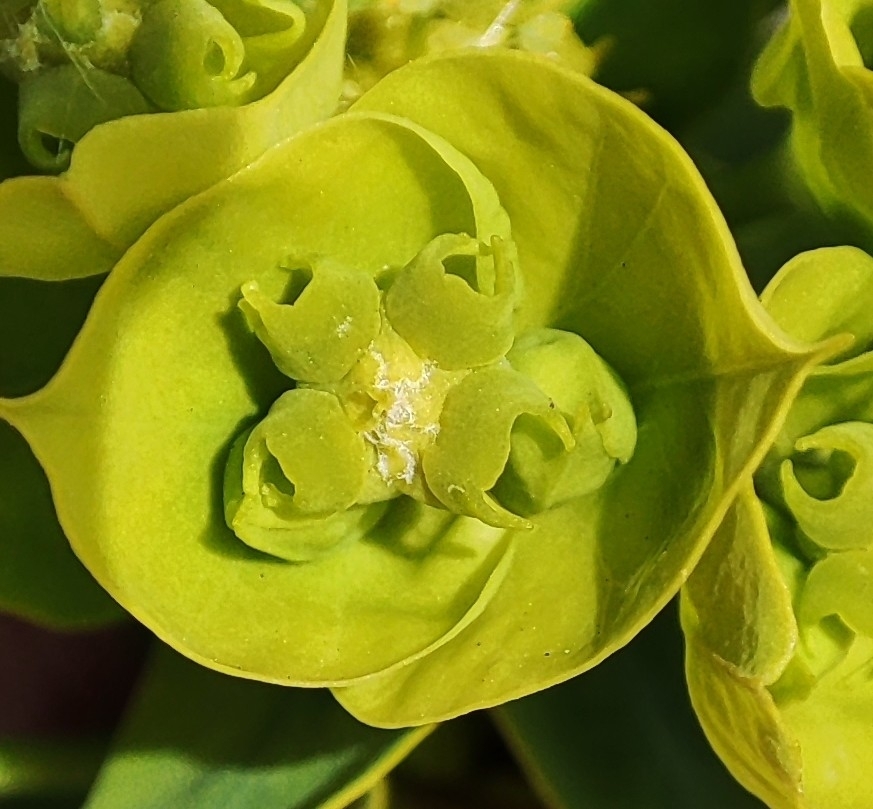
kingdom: Plantae
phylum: Tracheophyta
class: Magnoliopsida
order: Malpighiales
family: Euphorbiaceae
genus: Euphorbia
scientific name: Euphorbia virgata
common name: Leafy spurge
